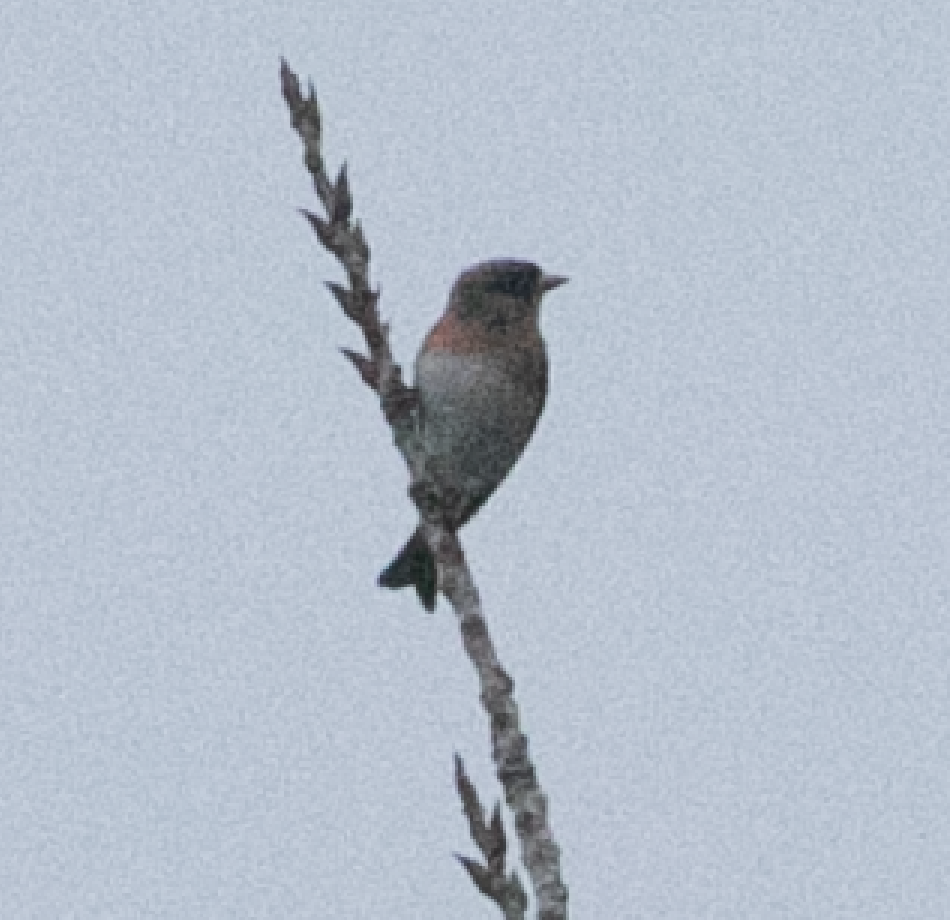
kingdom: Animalia
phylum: Chordata
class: Aves
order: Passeriformes
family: Fringillidae
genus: Fringilla
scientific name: Fringilla montifringilla
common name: Brambling
